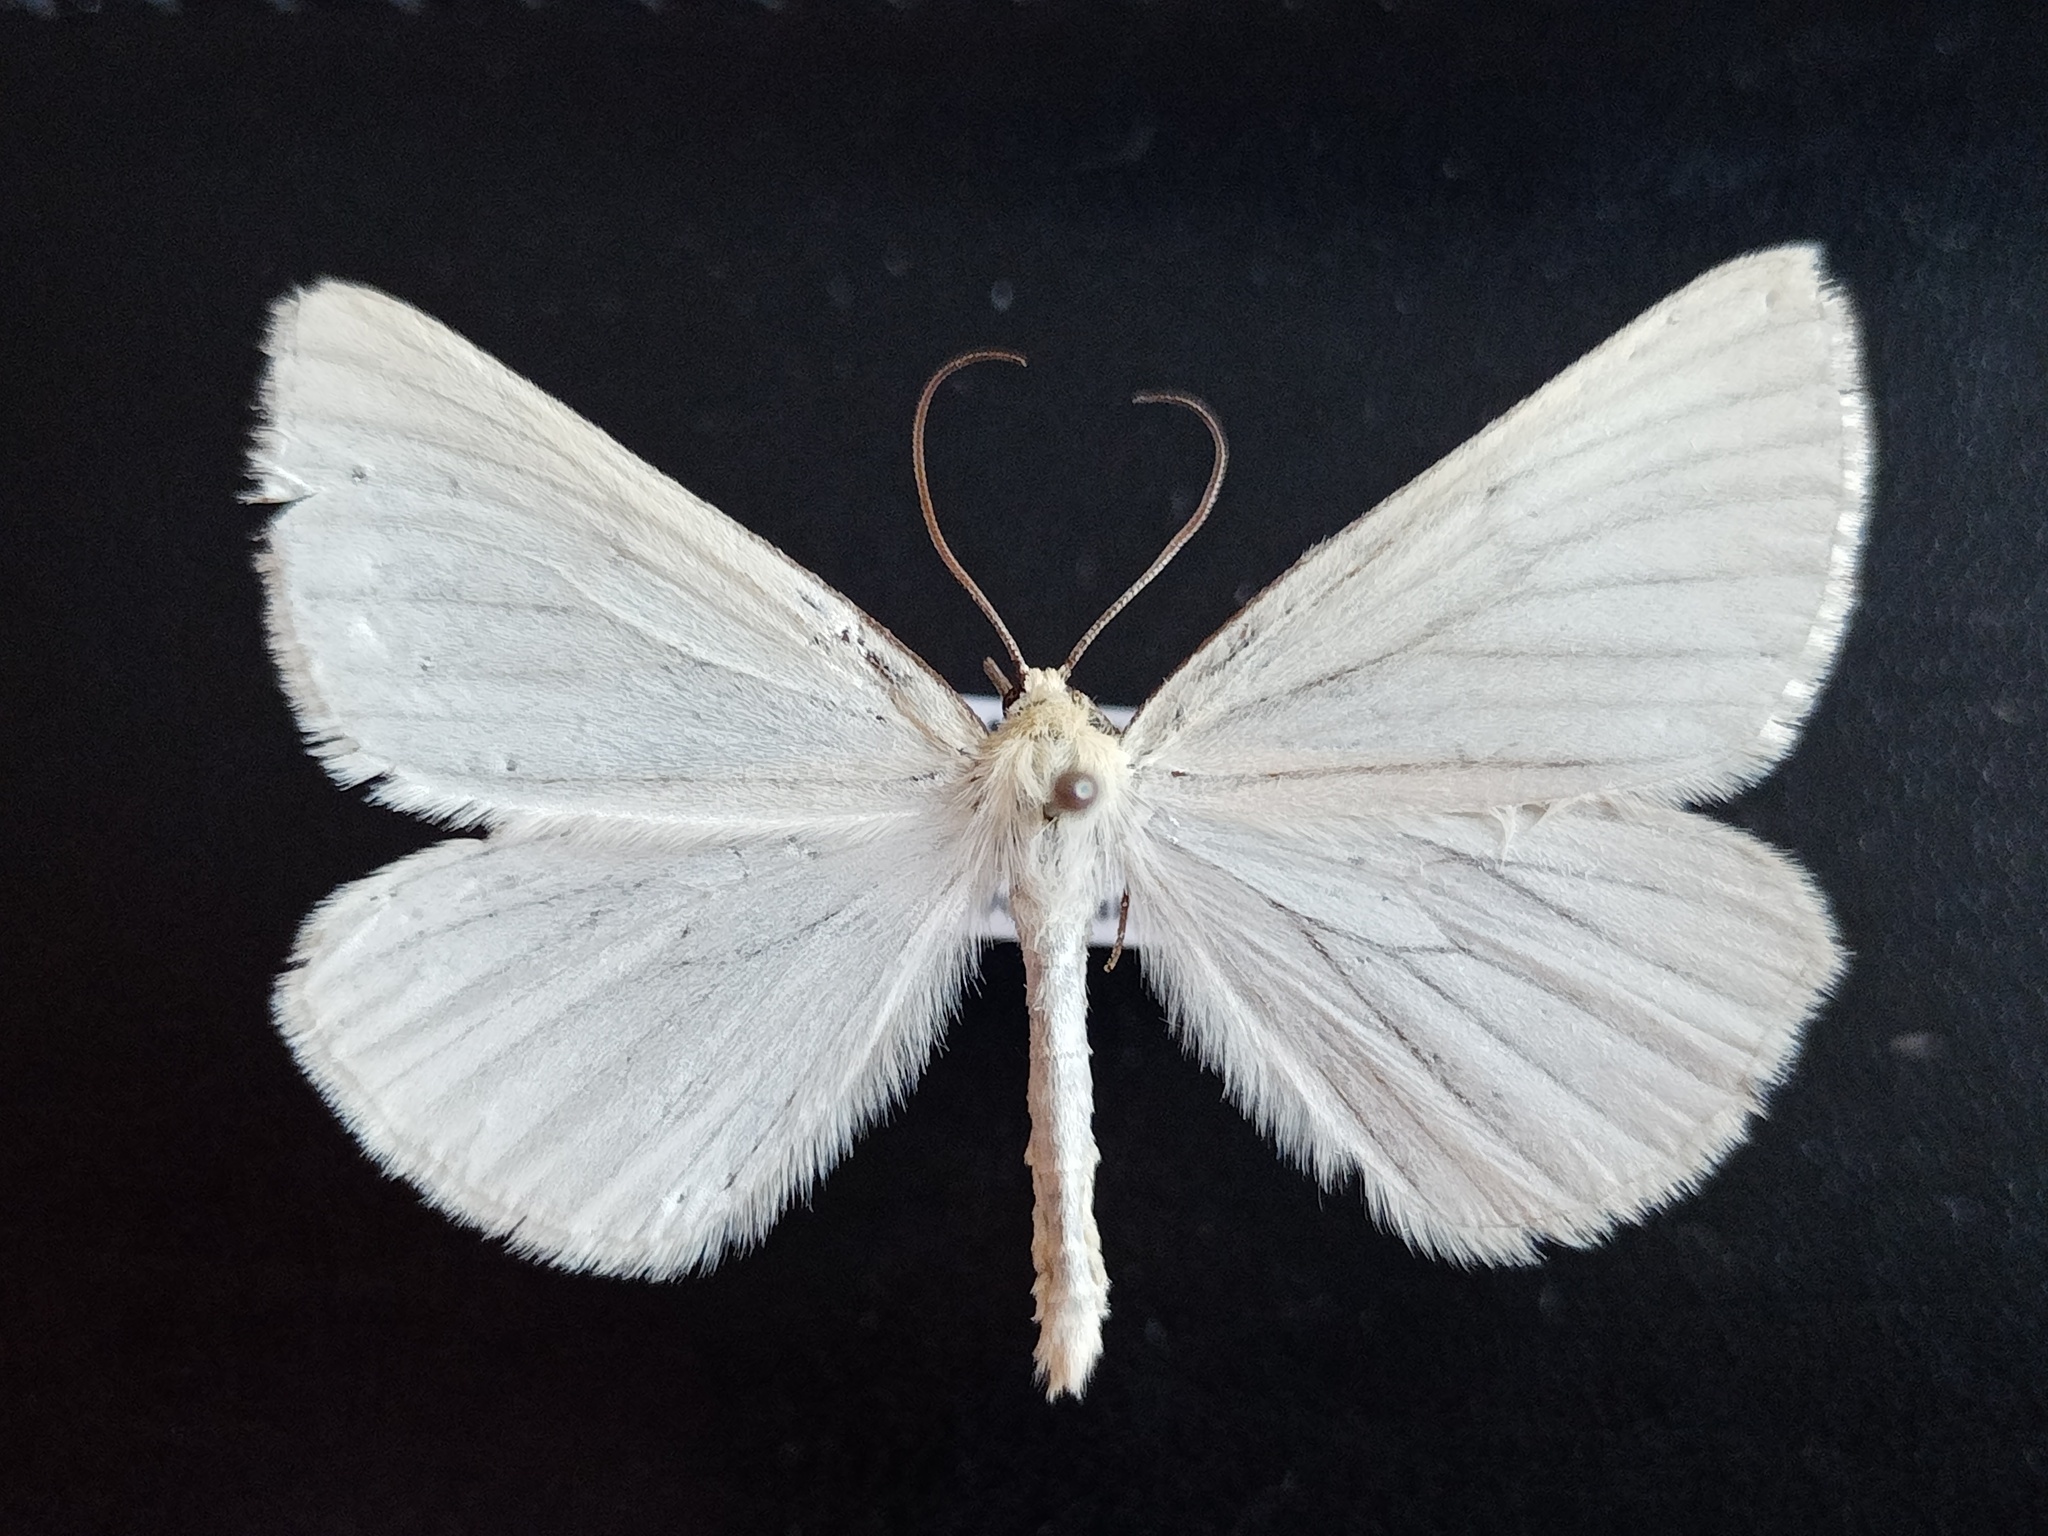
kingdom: Animalia
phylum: Arthropoda
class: Insecta
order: Lepidoptera
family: Geometridae
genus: Siona
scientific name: Siona lineata
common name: Black-veined moth
